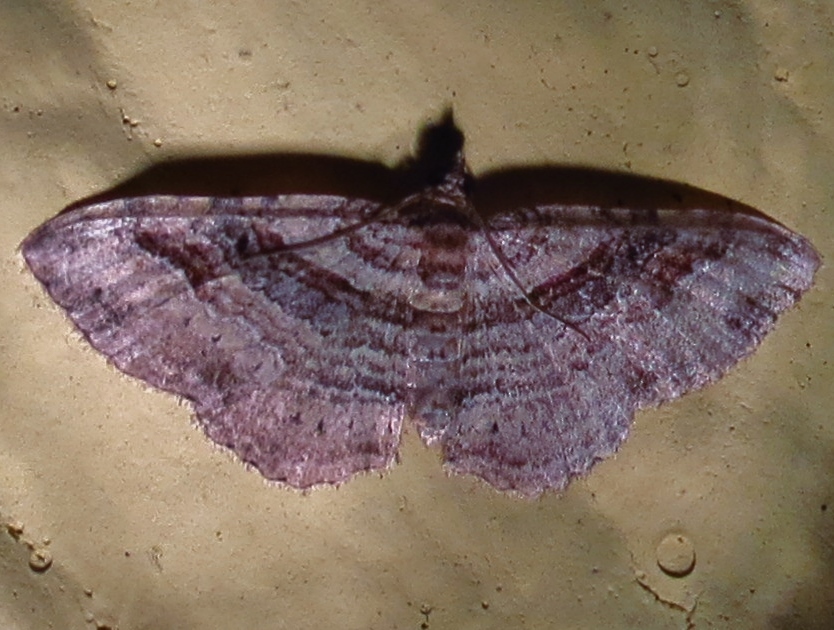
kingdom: Animalia
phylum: Arthropoda
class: Insecta
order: Lepidoptera
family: Geometridae
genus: Costaconvexa
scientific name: Costaconvexa centrostrigaria
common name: Bent-line carpet
